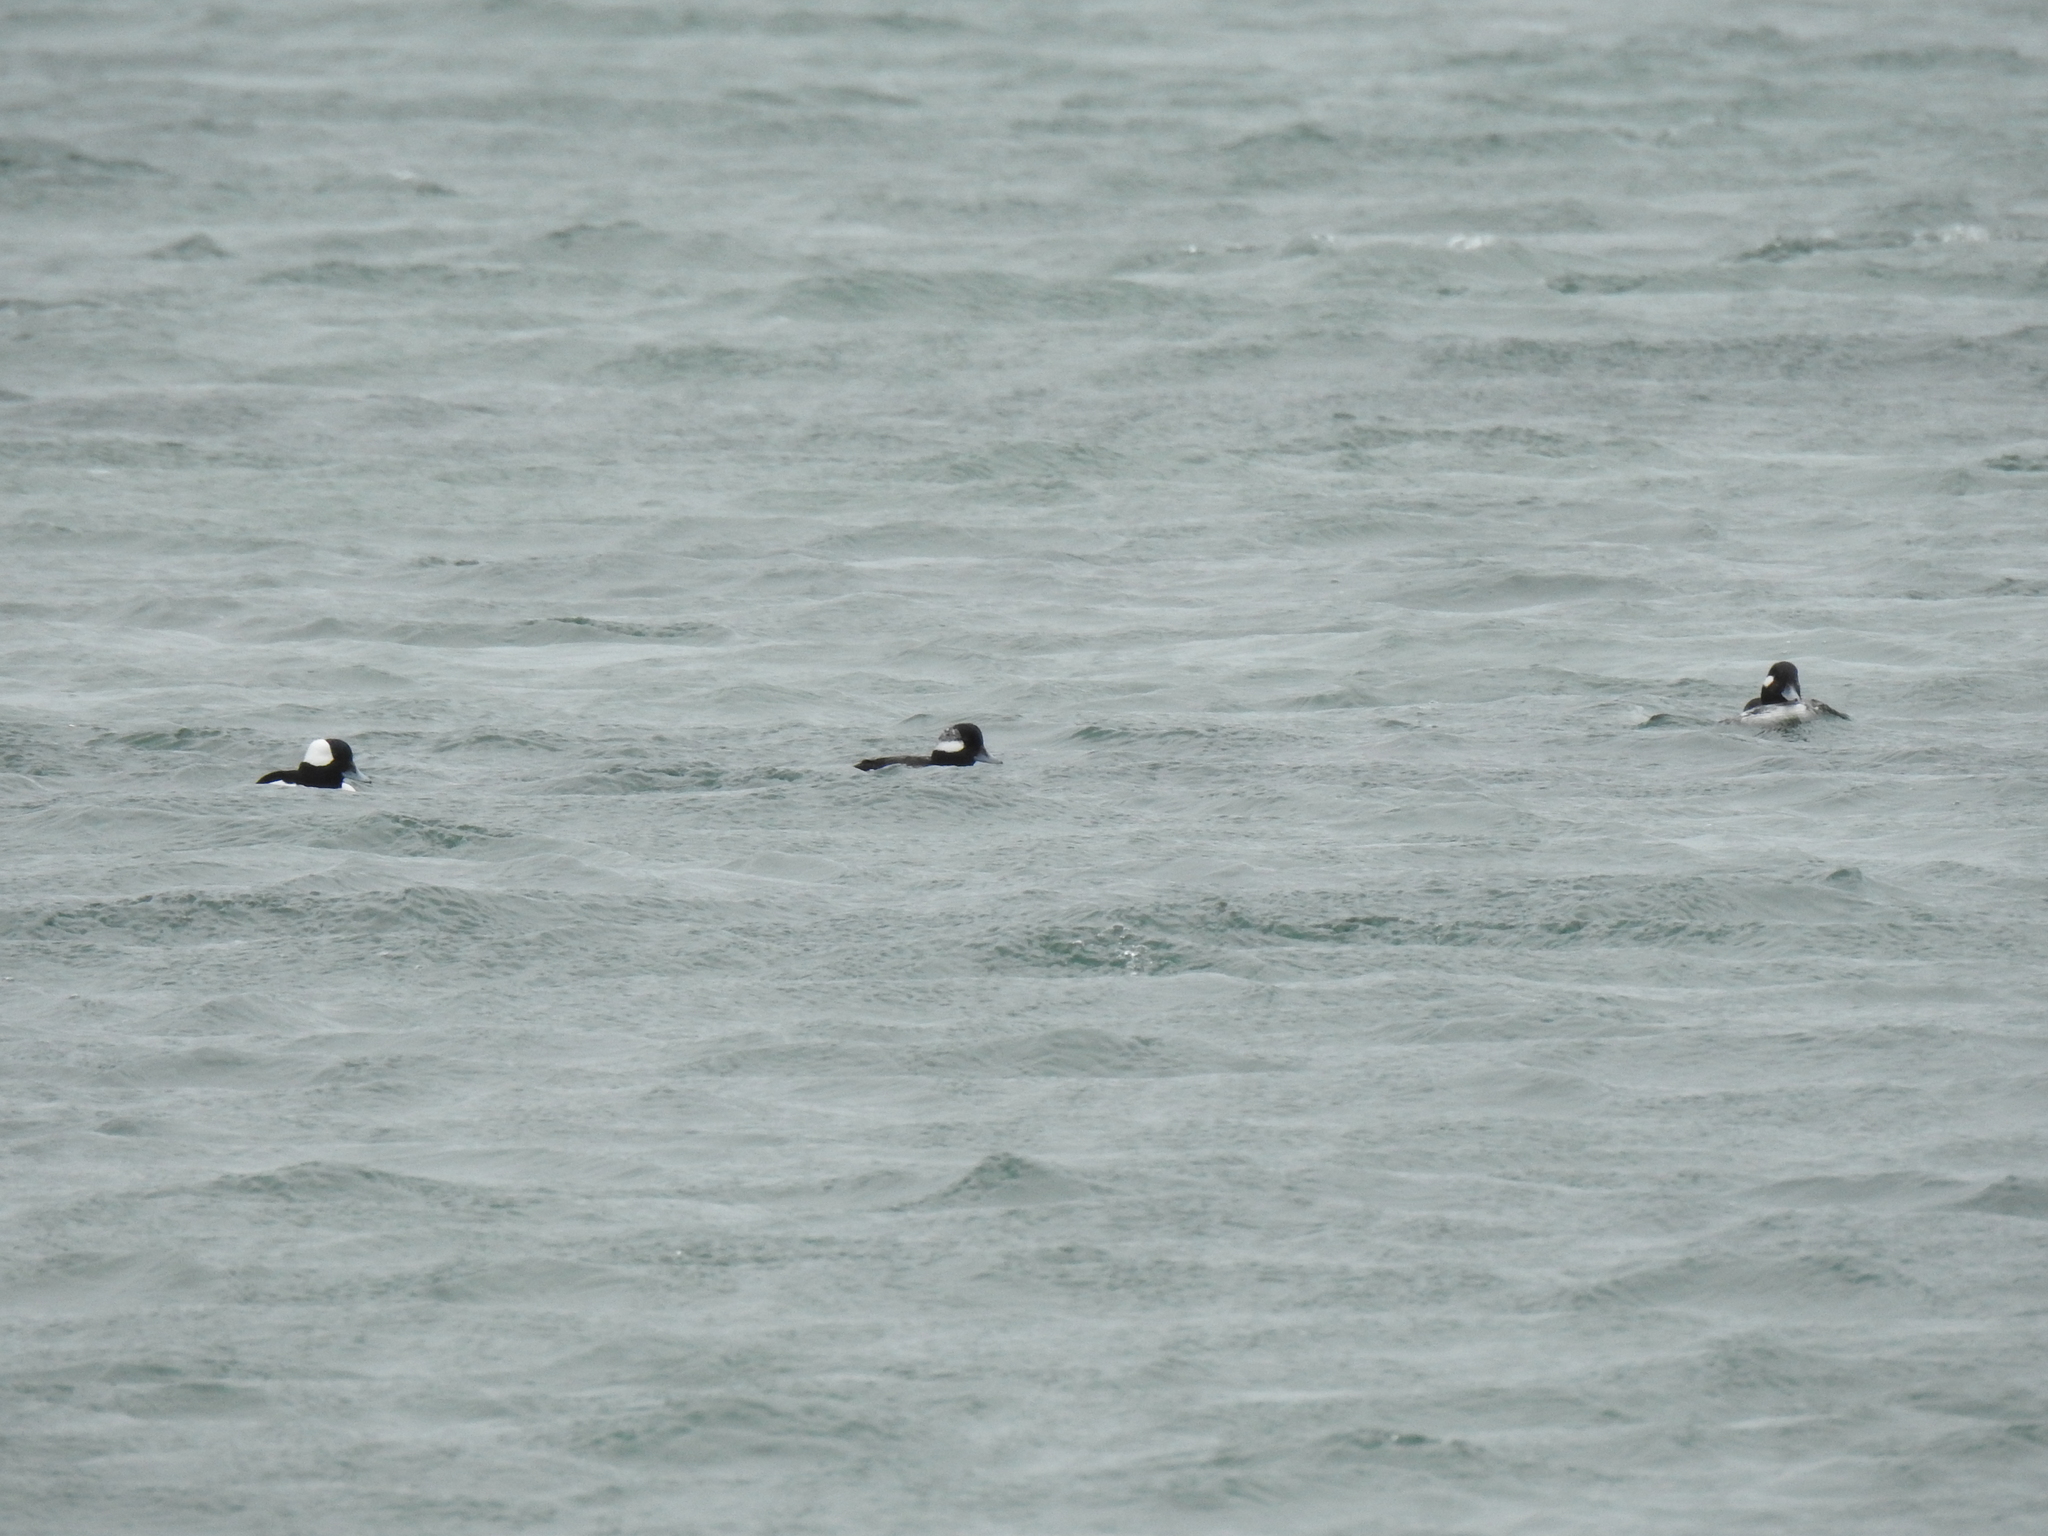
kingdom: Animalia
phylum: Chordata
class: Aves
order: Anseriformes
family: Anatidae
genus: Bucephala
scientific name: Bucephala albeola
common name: Bufflehead
